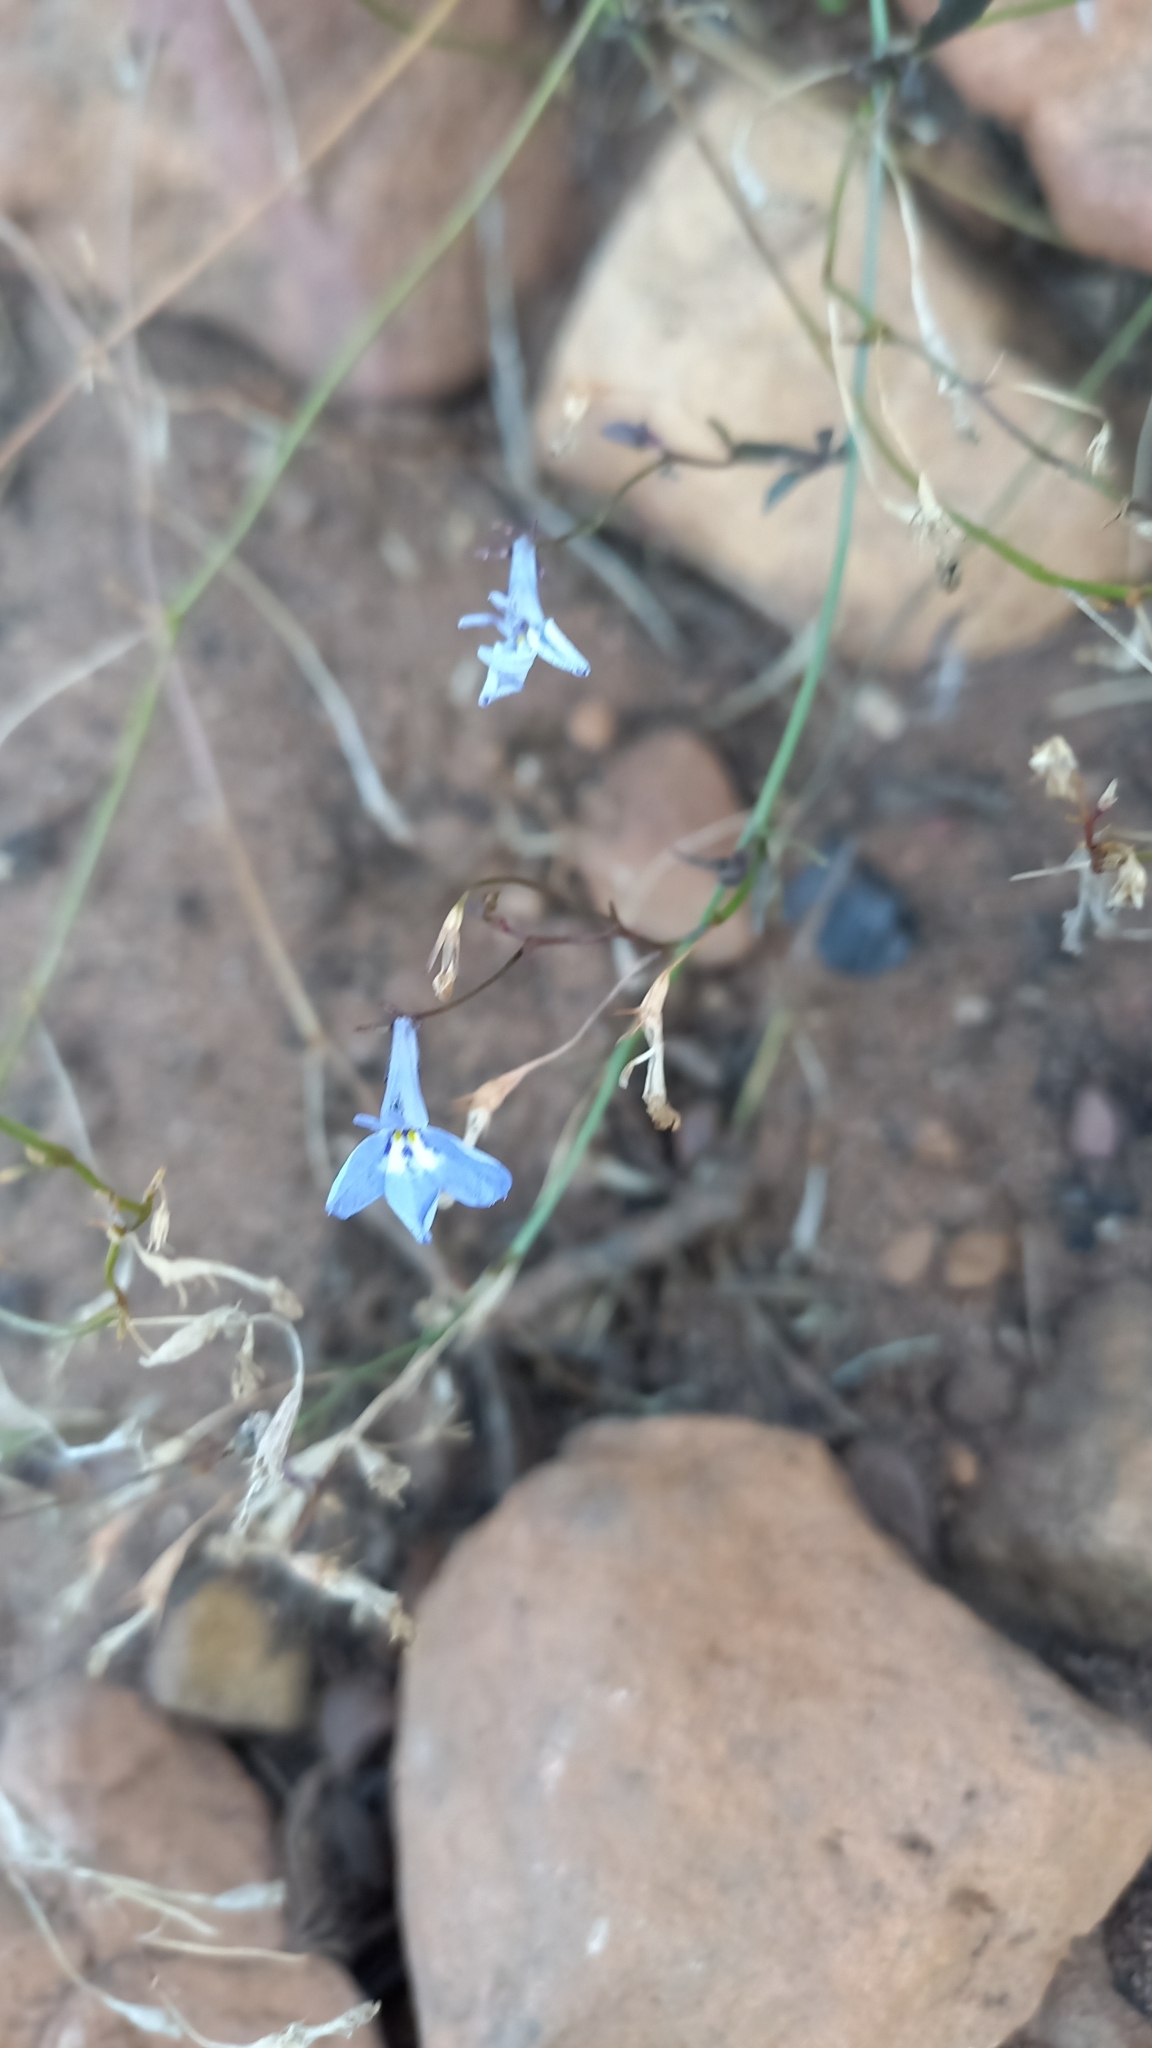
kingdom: Plantae
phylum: Tracheophyta
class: Magnoliopsida
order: Asterales
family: Campanulaceae
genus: Lobelia
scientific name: Lobelia erinus
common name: Edging lobelia
